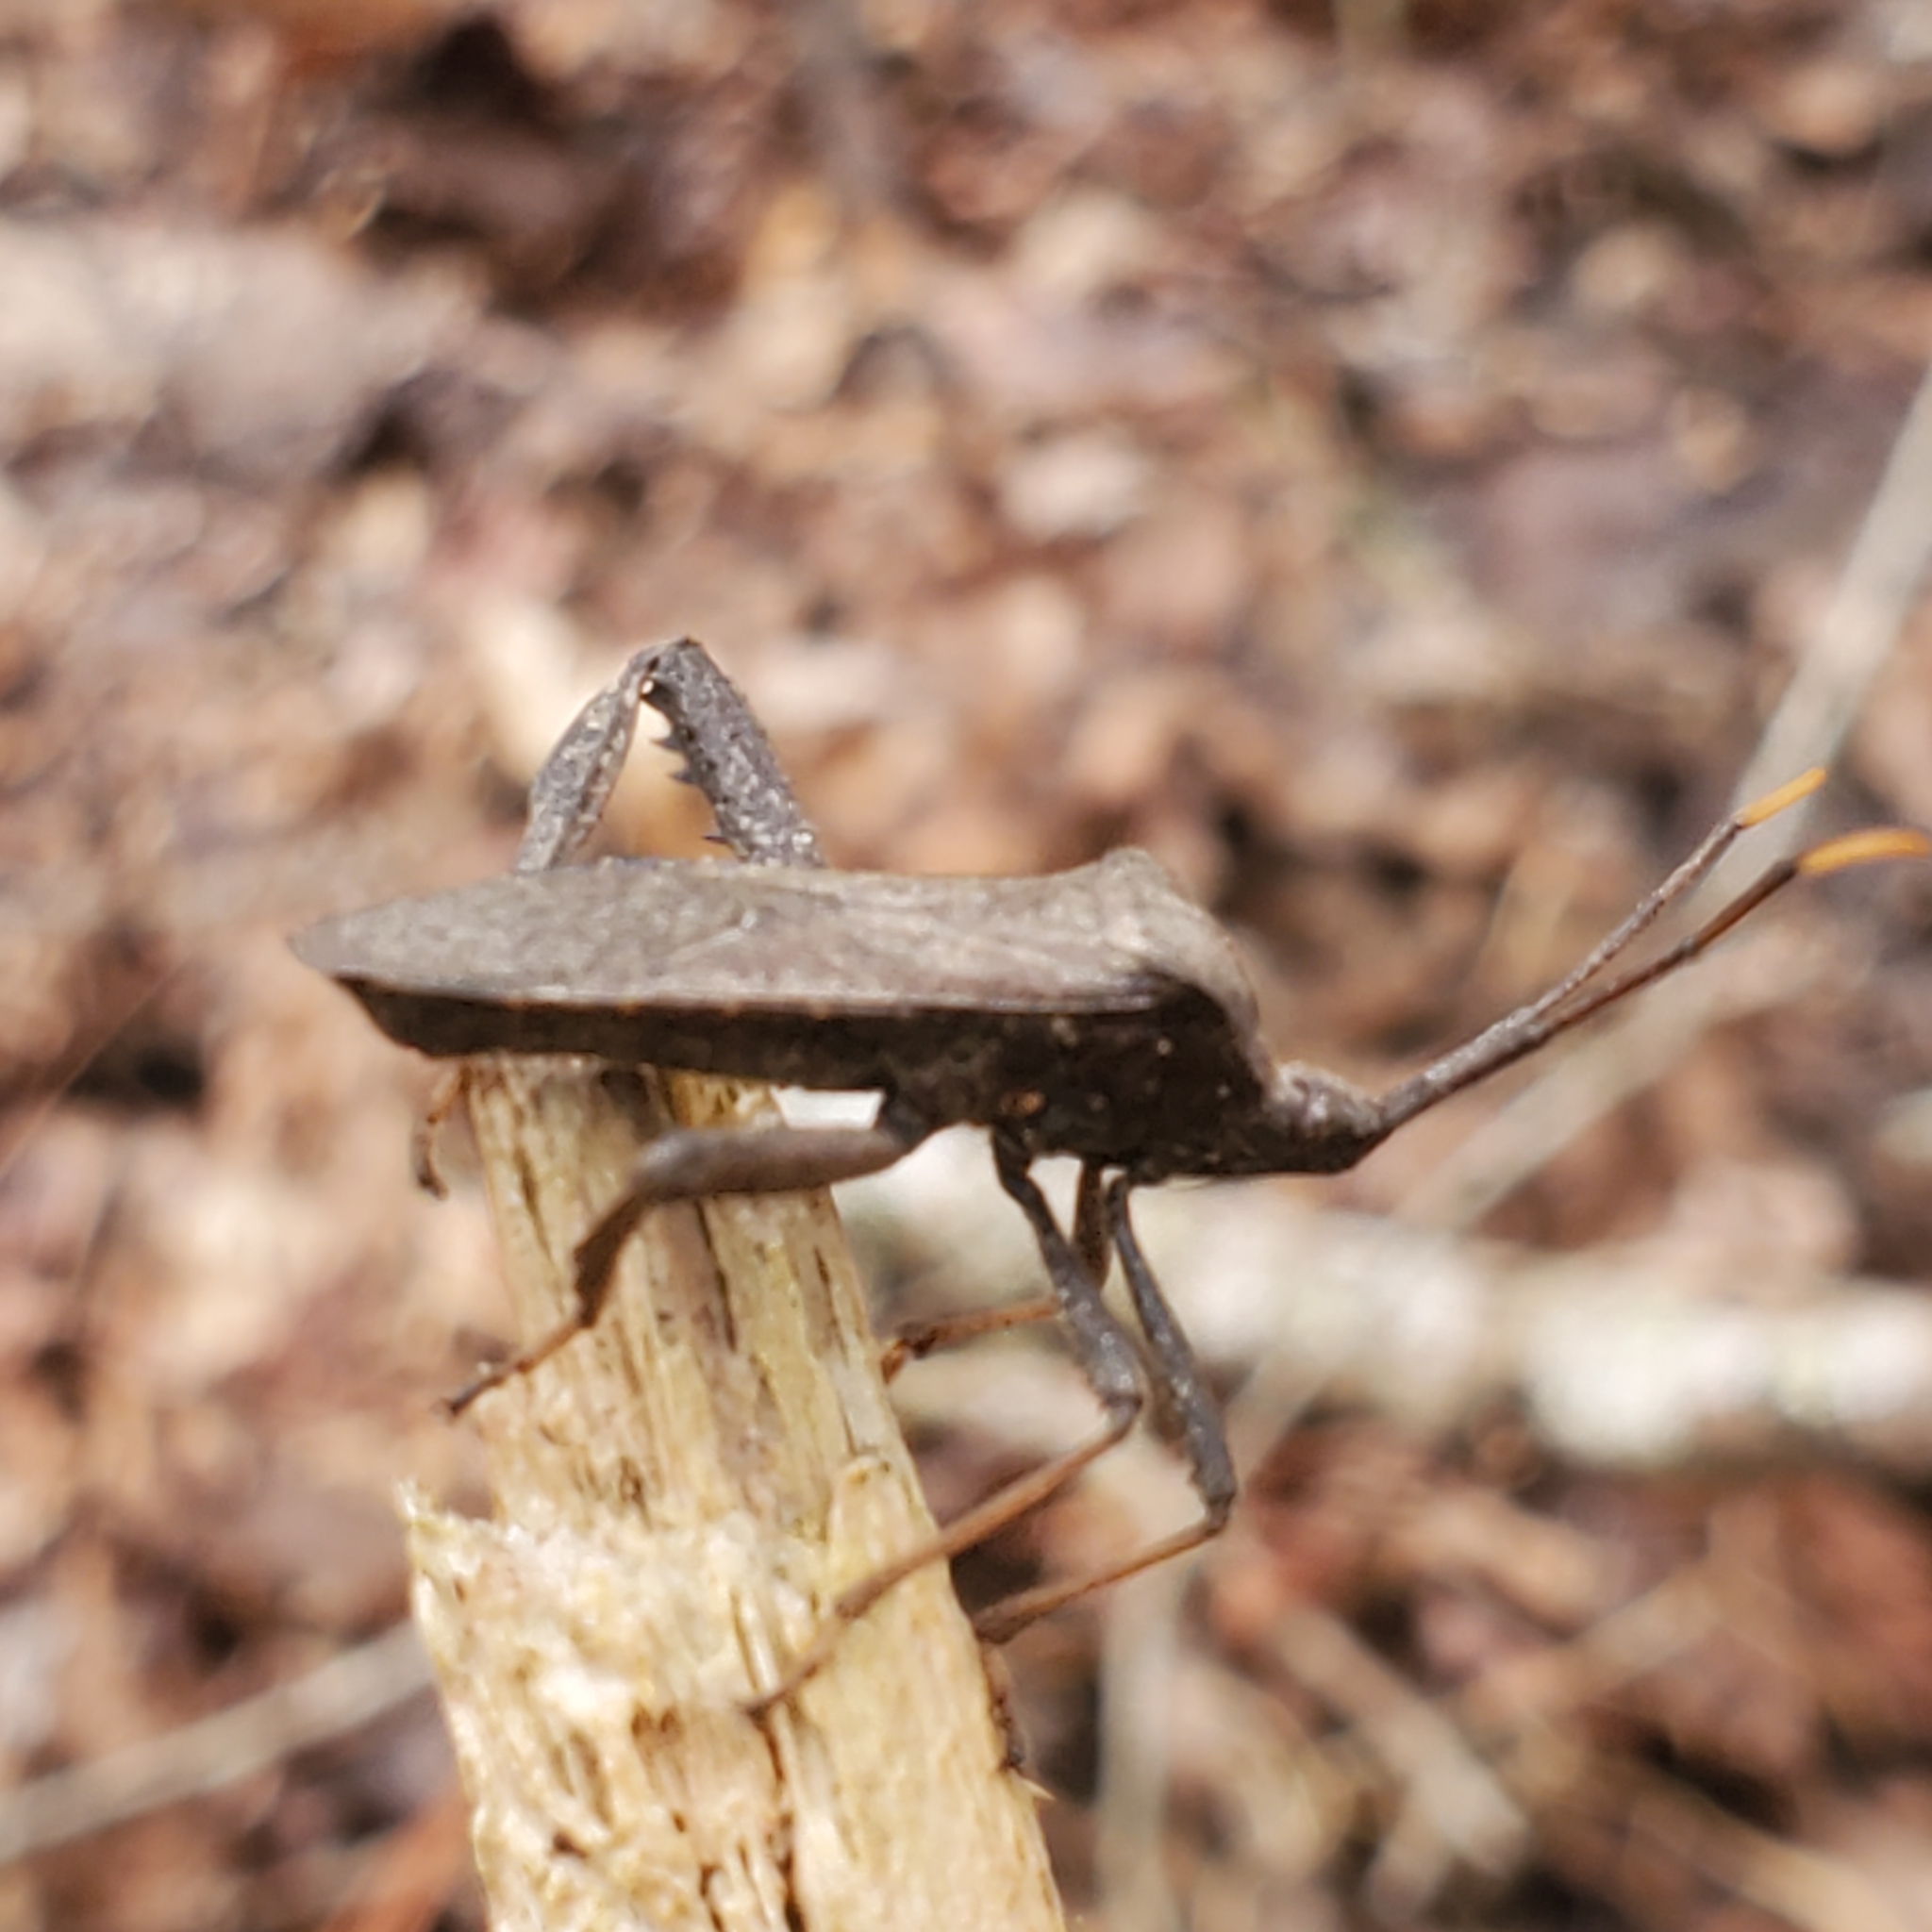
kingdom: Animalia
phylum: Arthropoda
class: Insecta
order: Hemiptera
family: Coreidae
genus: Acanthocephala
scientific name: Acanthocephala terminalis
